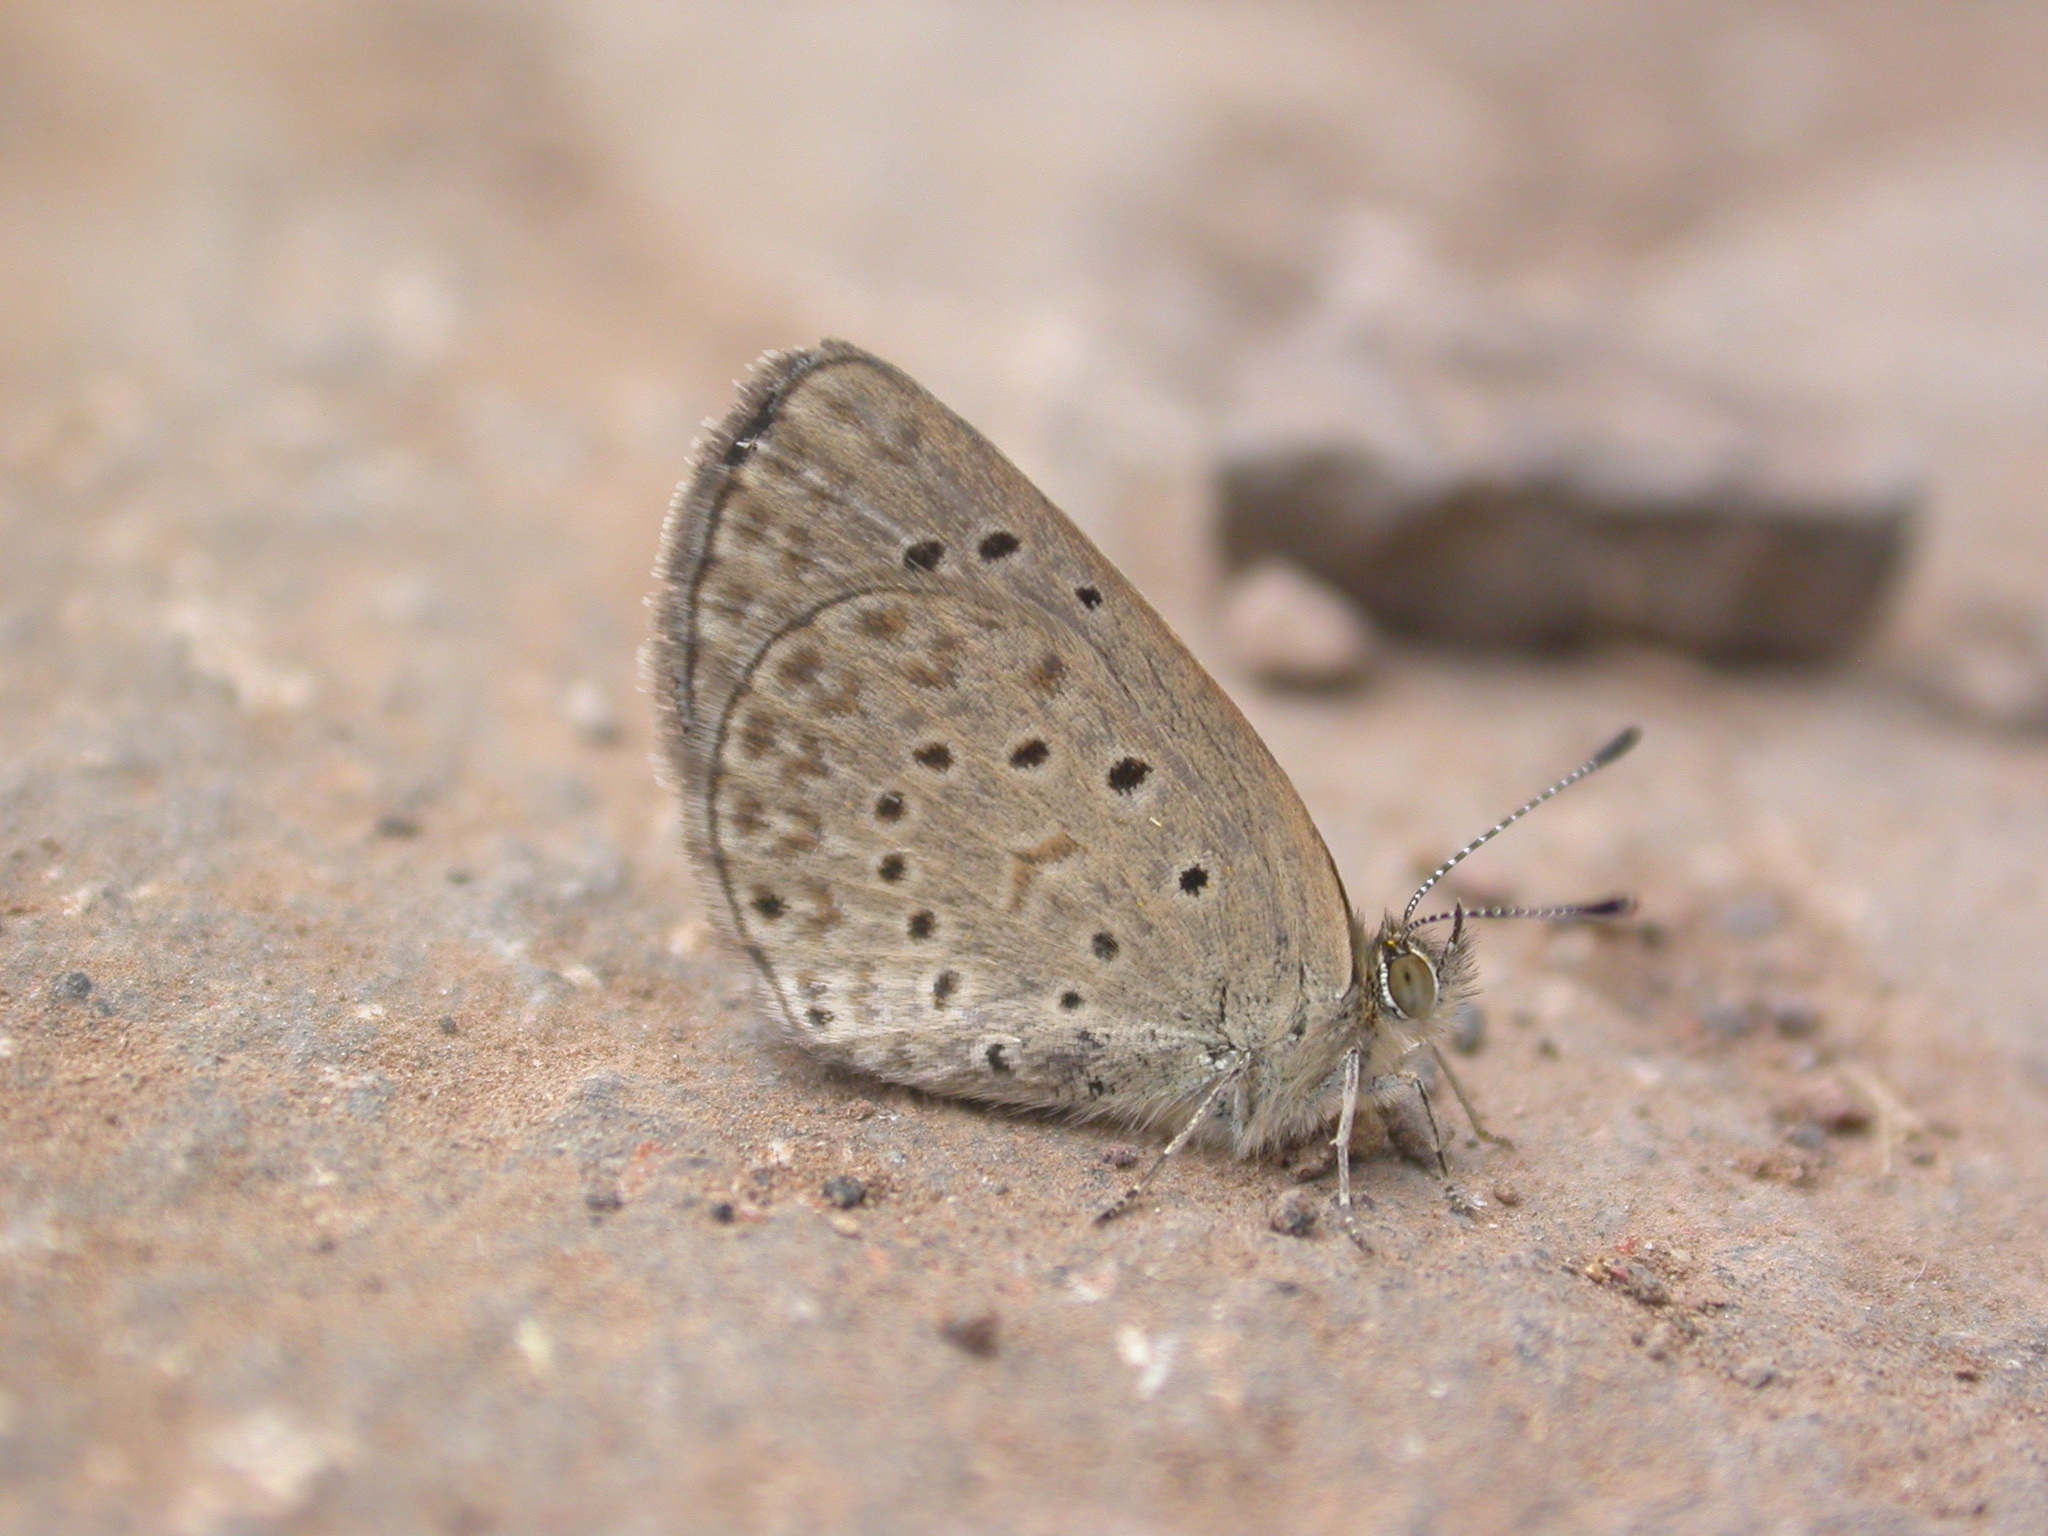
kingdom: Animalia
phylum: Arthropoda
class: Insecta
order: Lepidoptera
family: Lycaenidae
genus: Zizeeria
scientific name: Zizeeria knysna
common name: African grass blue
